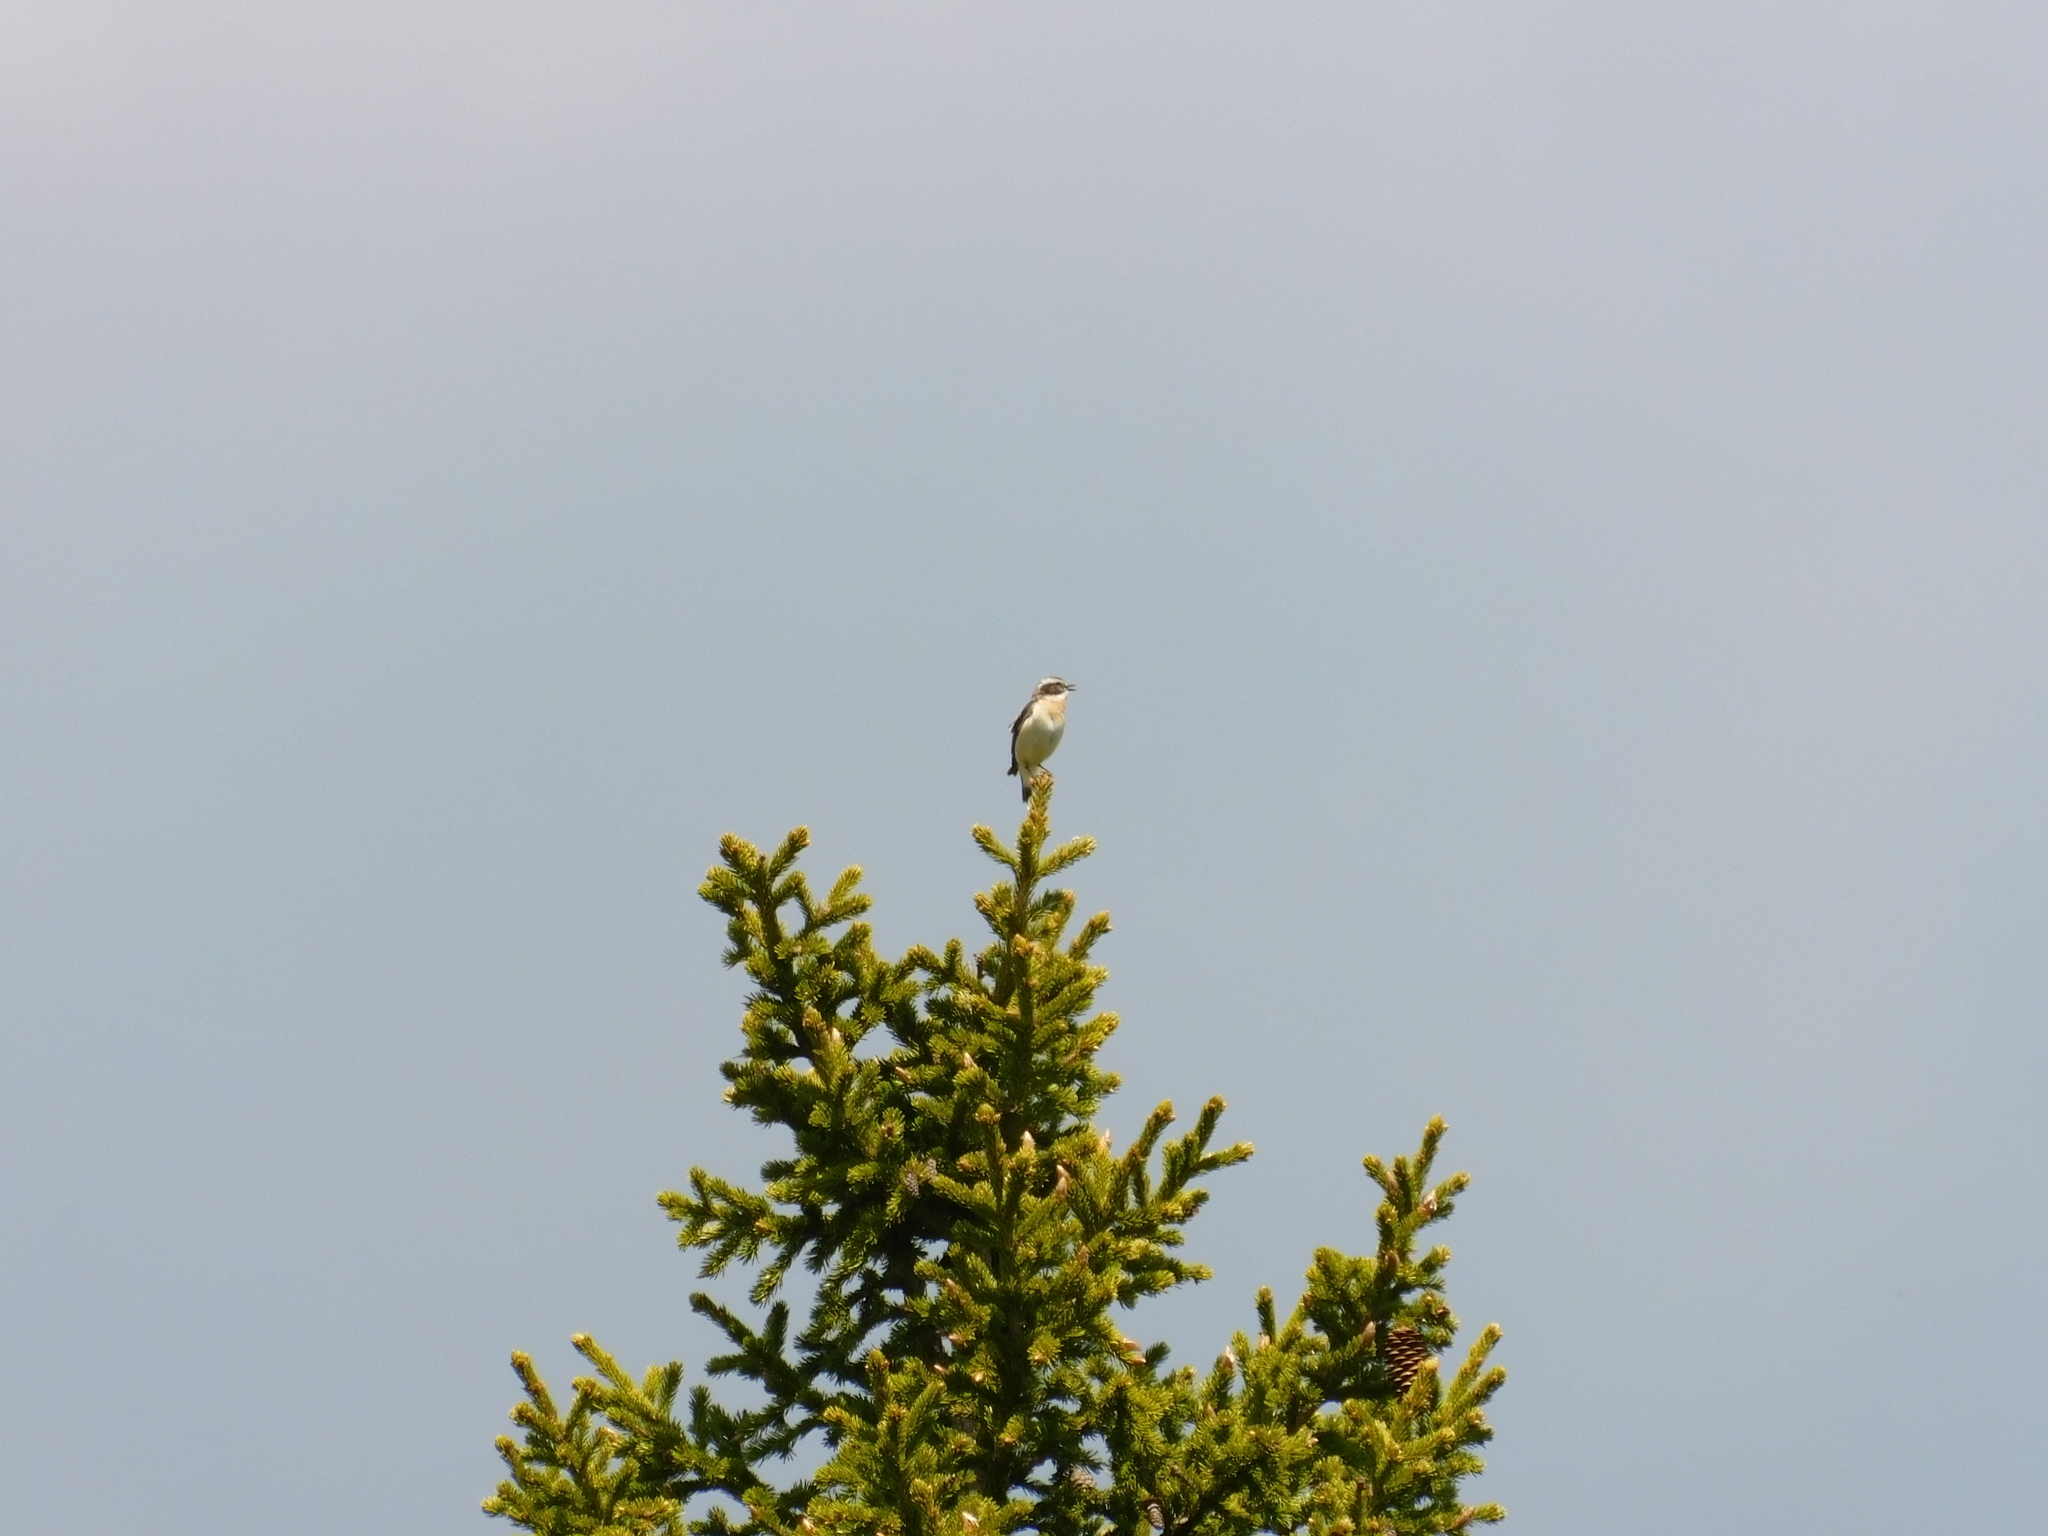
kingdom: Animalia
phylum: Chordata
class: Aves
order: Passeriformes
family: Muscicapidae
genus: Saxicola
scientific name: Saxicola rubetra
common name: Whinchat
